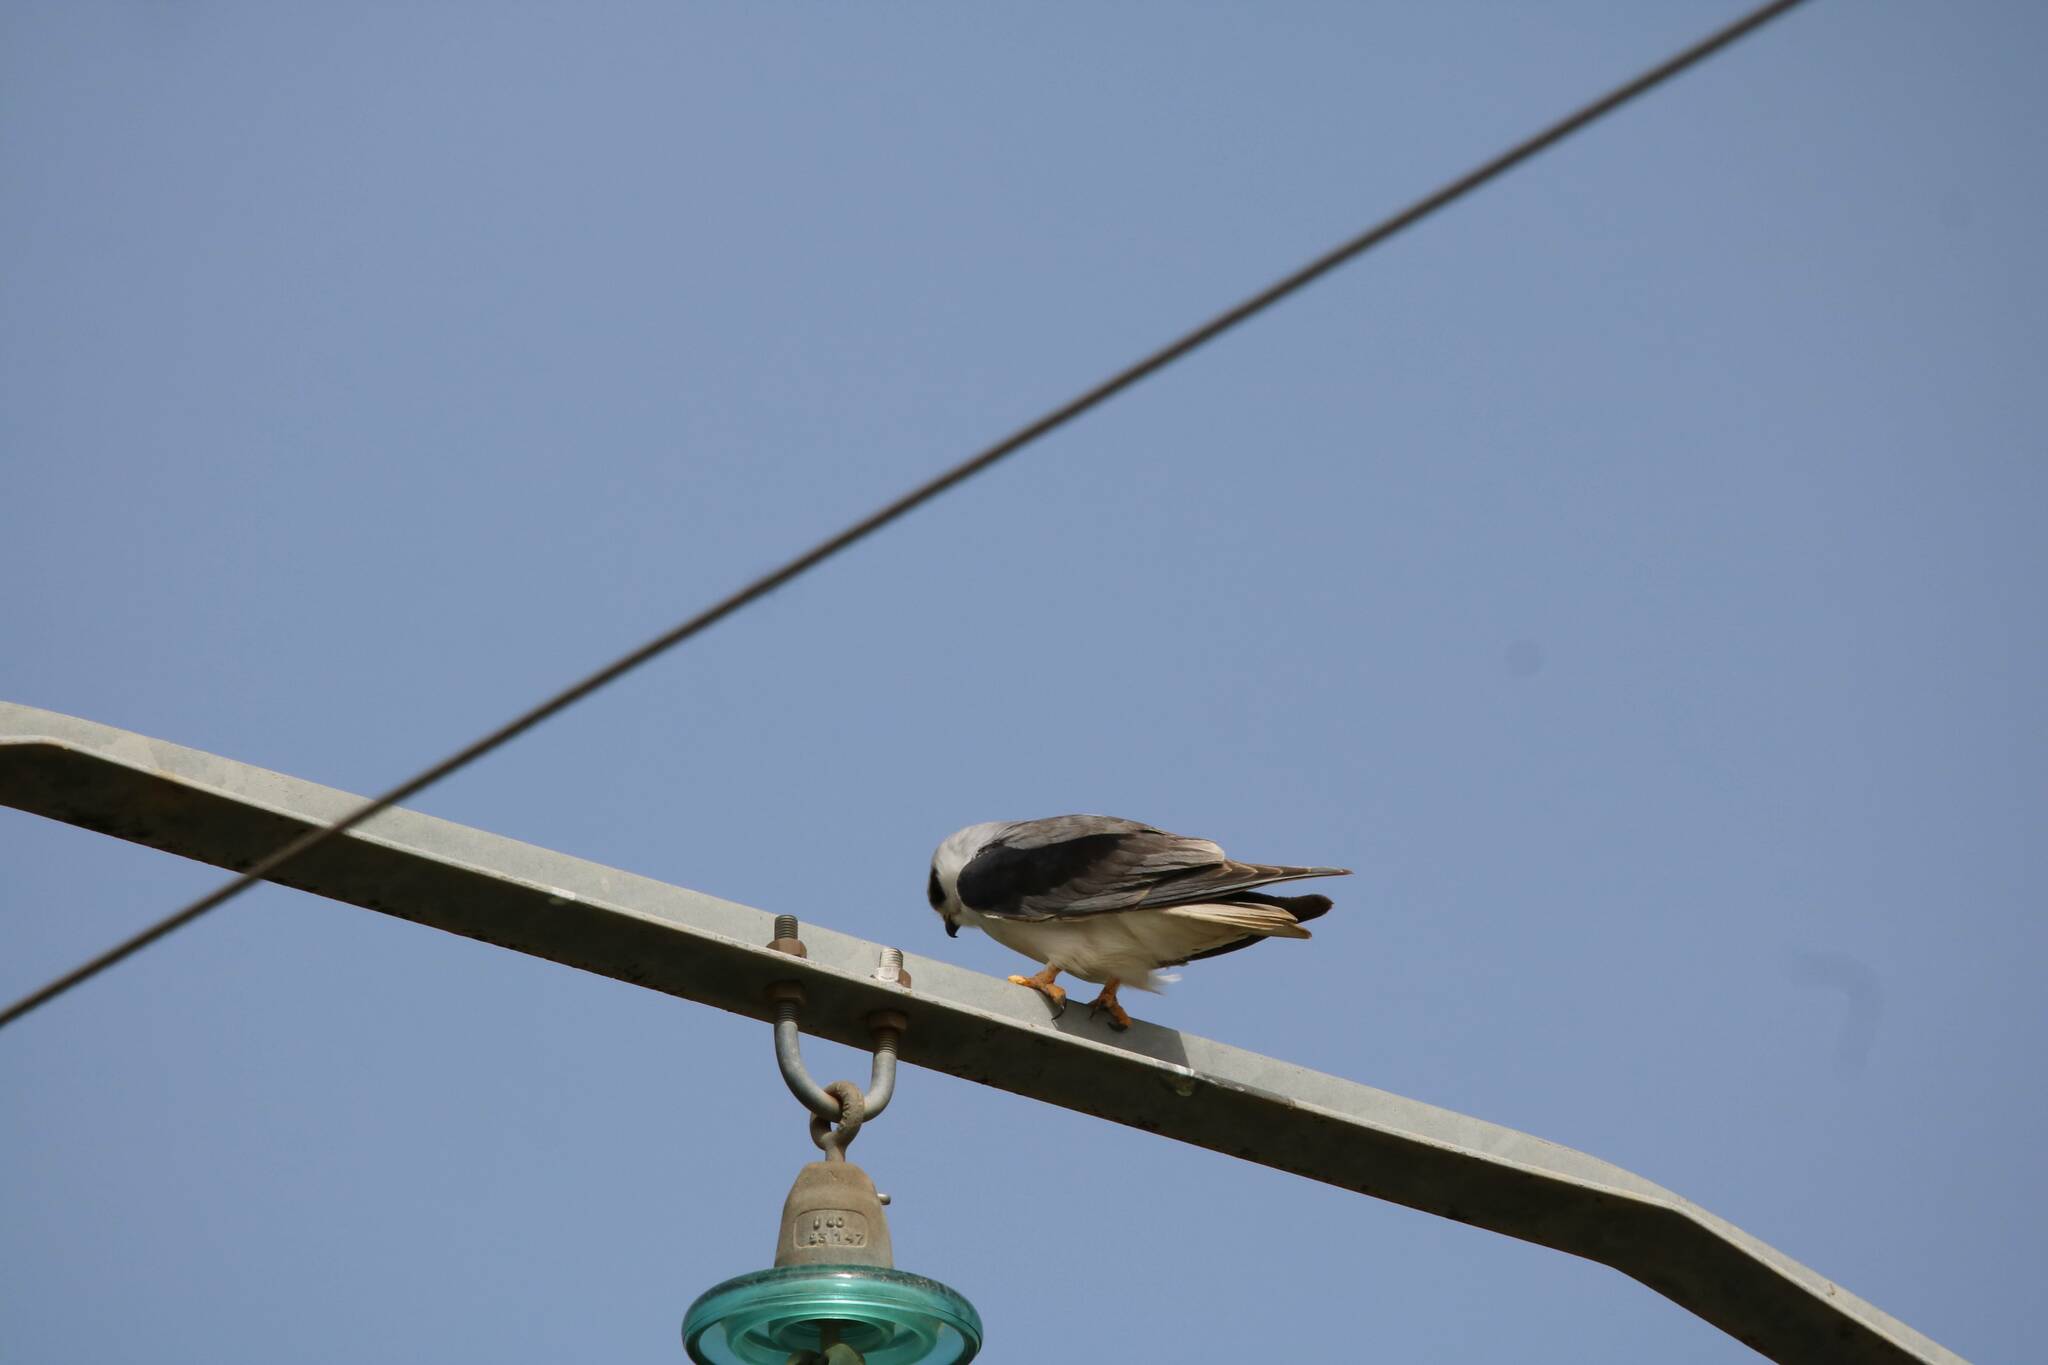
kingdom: Animalia
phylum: Chordata
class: Aves
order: Accipitriformes
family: Accipitridae
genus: Elanus
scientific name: Elanus caeruleus
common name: Black-winged kite
